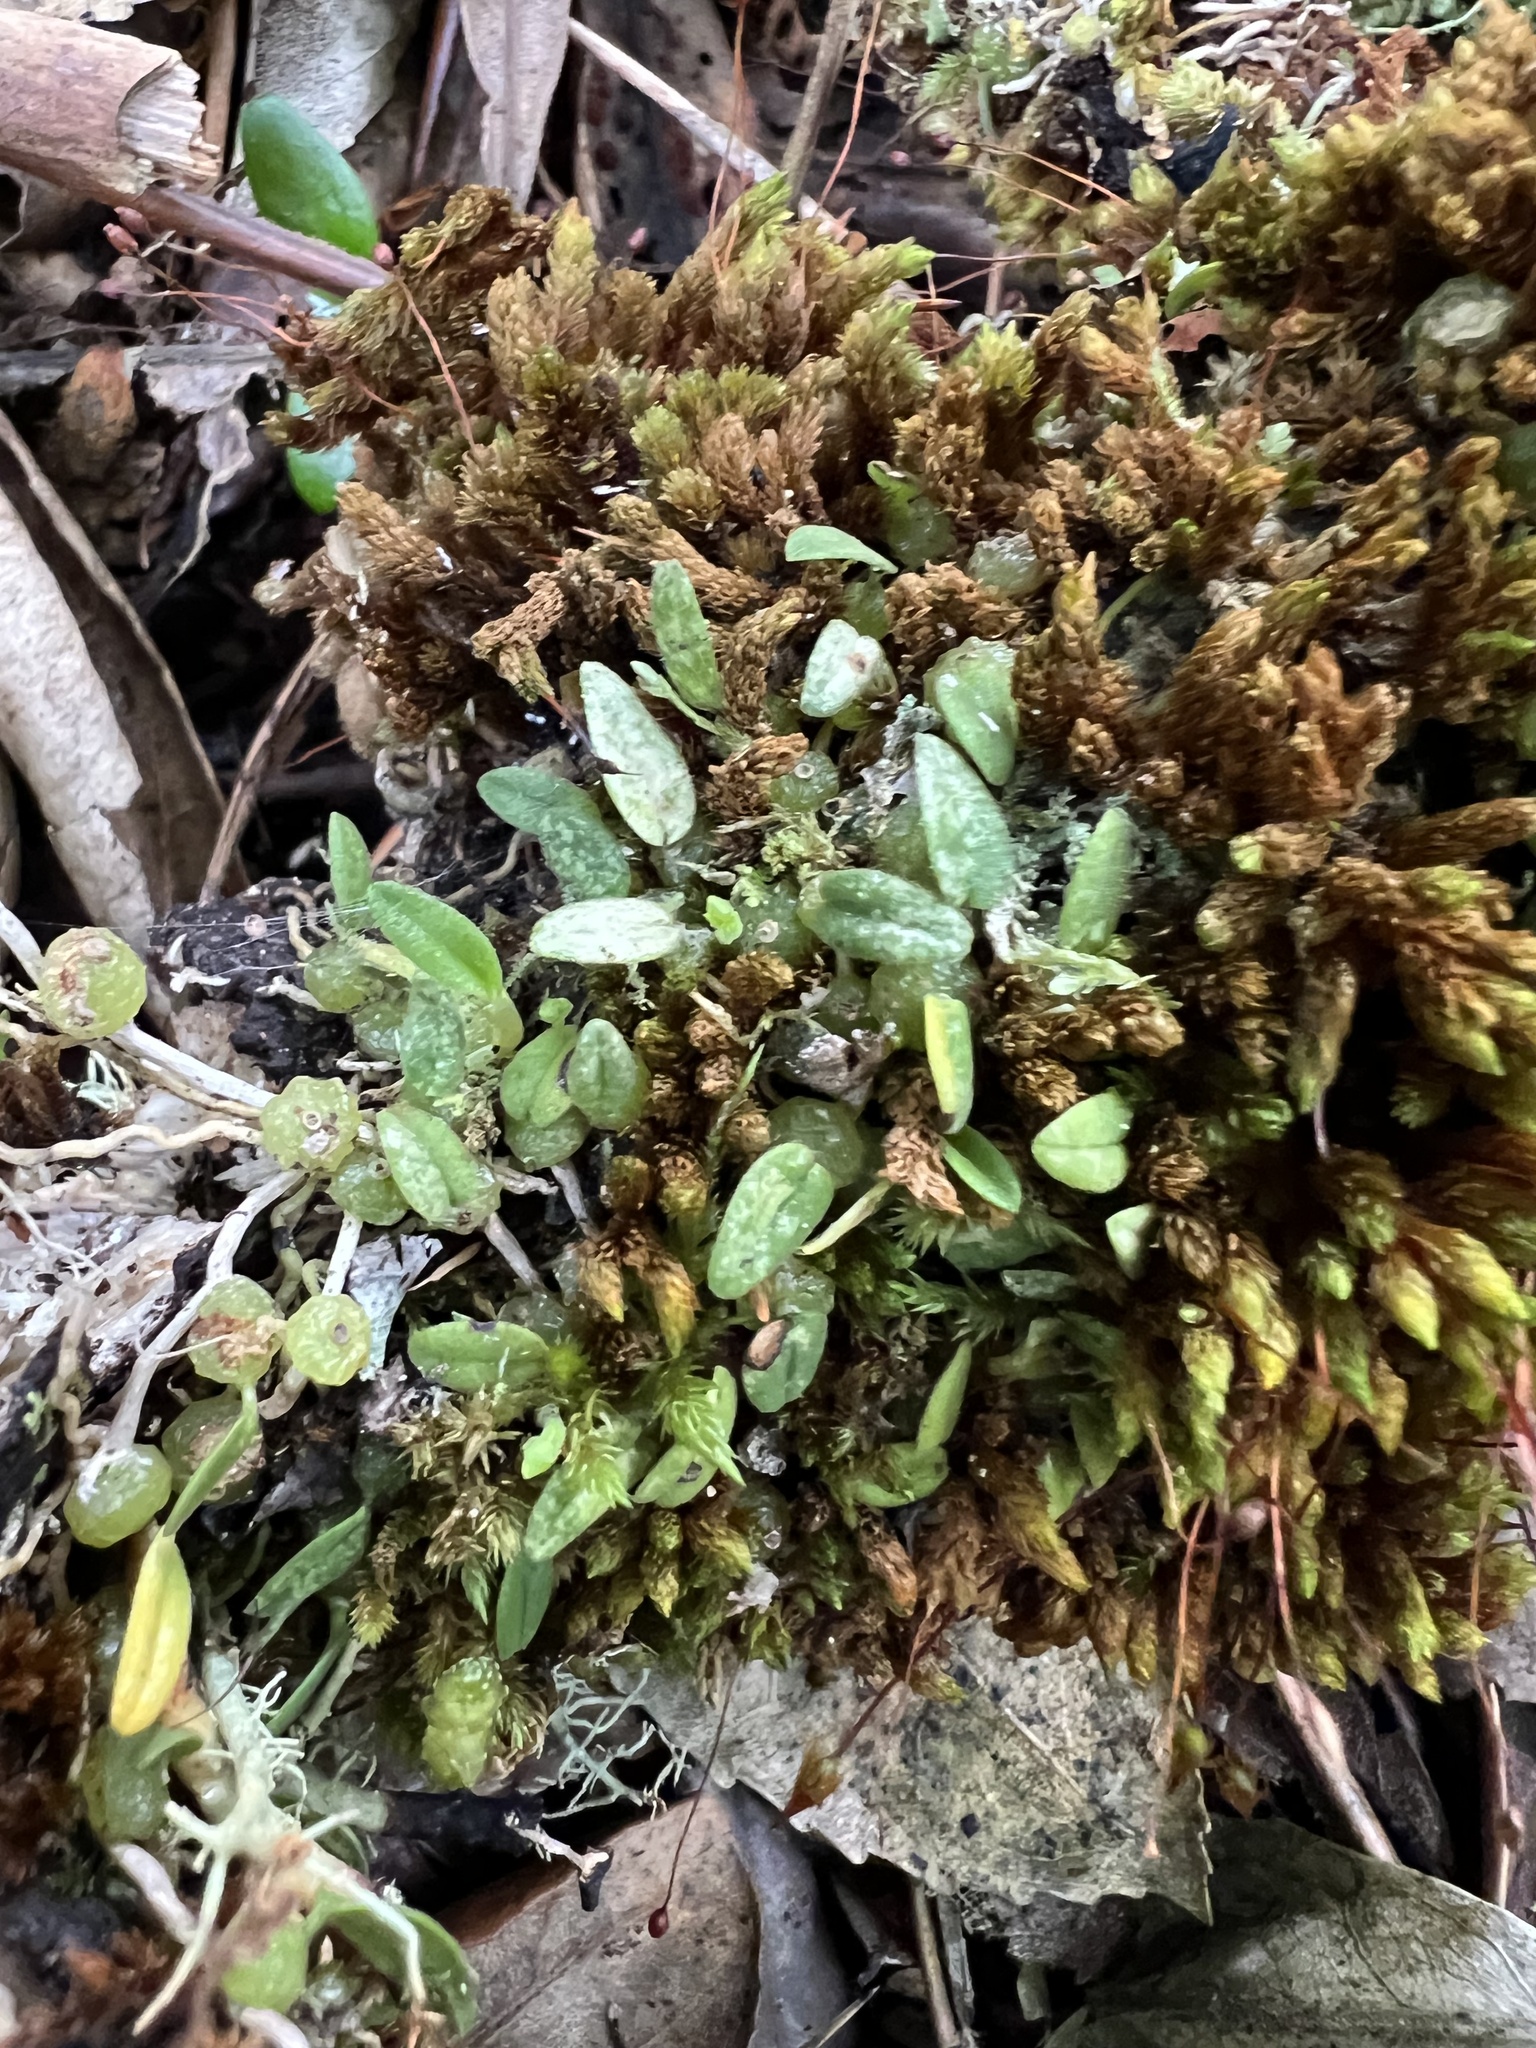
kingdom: Plantae
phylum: Tracheophyta
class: Liliopsida
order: Asparagales
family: Orchidaceae
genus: Bulbophyllum
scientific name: Bulbophyllum pygmaeum
